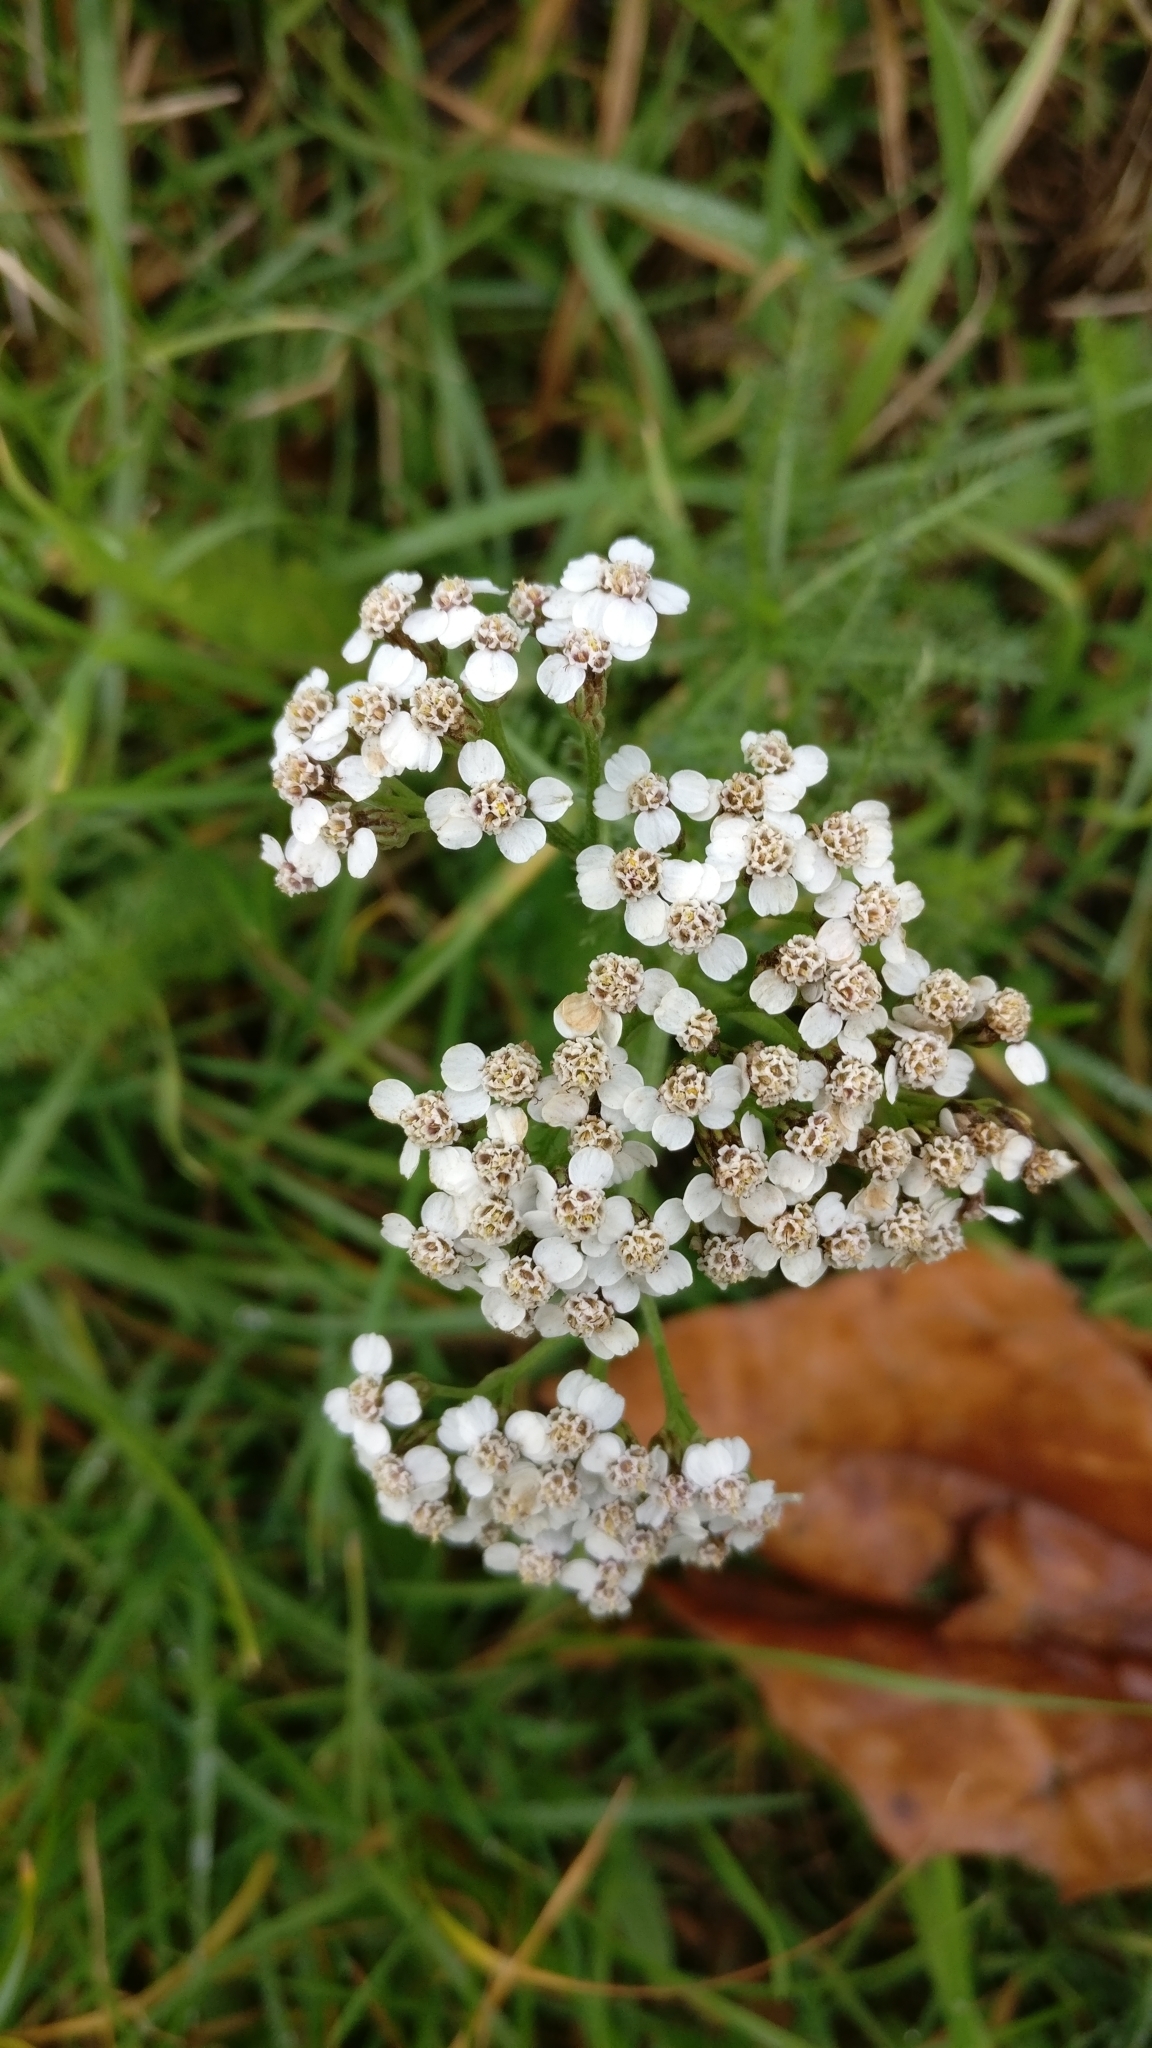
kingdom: Plantae
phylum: Tracheophyta
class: Magnoliopsida
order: Asterales
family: Asteraceae
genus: Achillea
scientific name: Achillea millefolium
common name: Yarrow
